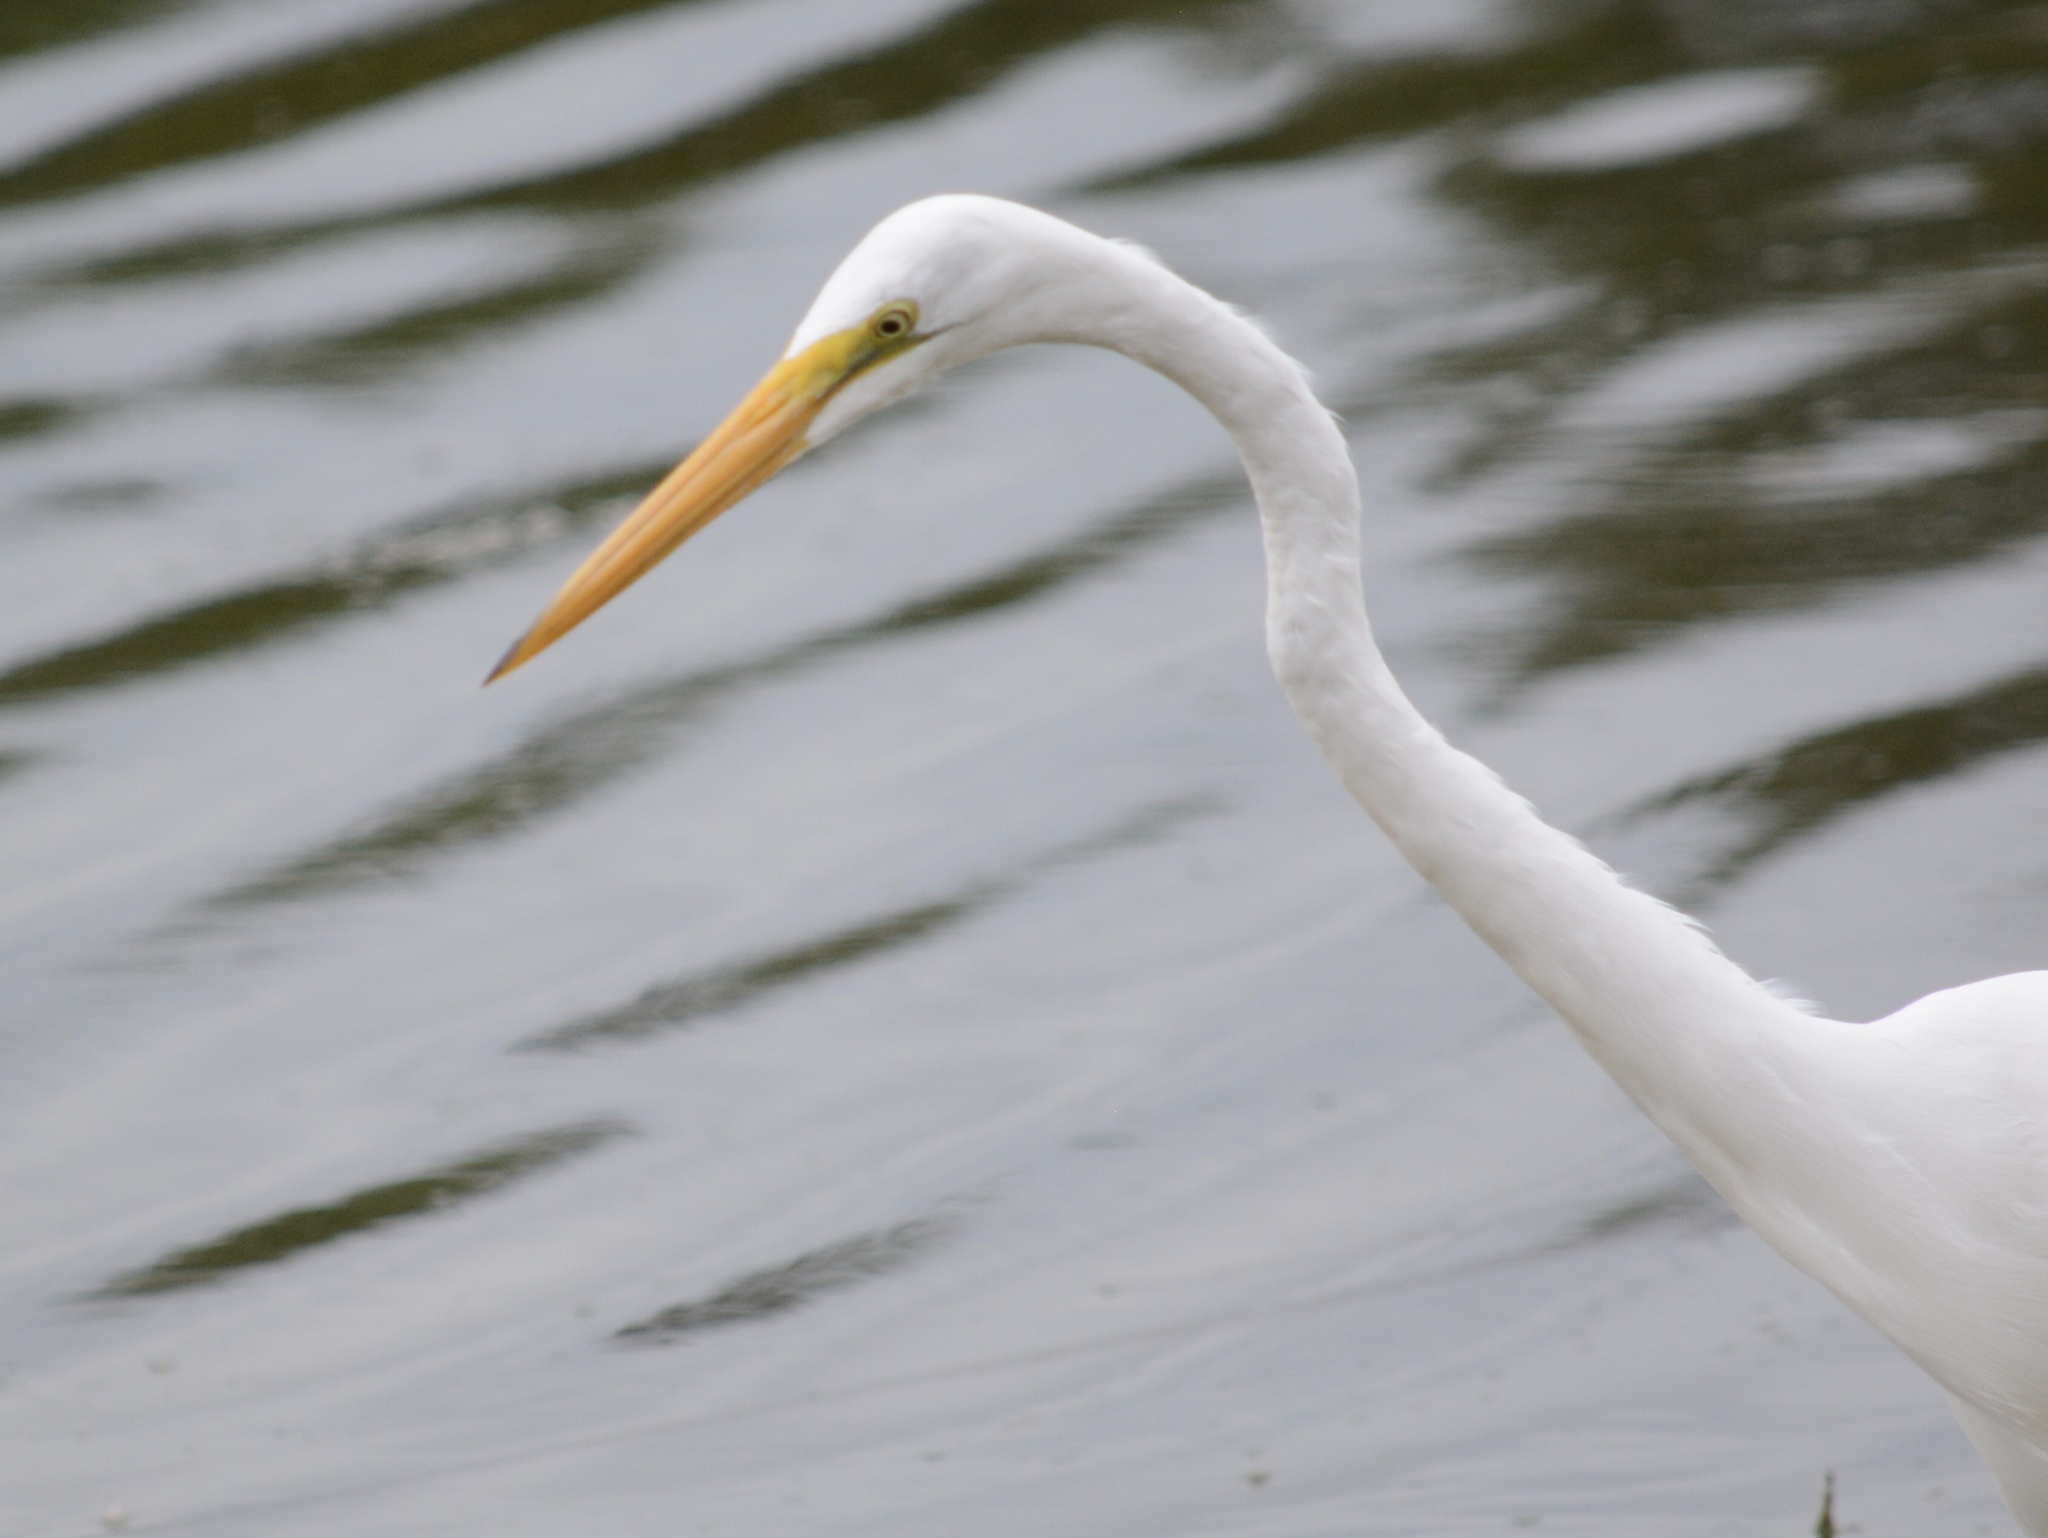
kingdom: Animalia
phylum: Chordata
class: Aves
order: Pelecaniformes
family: Ardeidae
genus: Ardea
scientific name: Ardea alba
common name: Great egret
